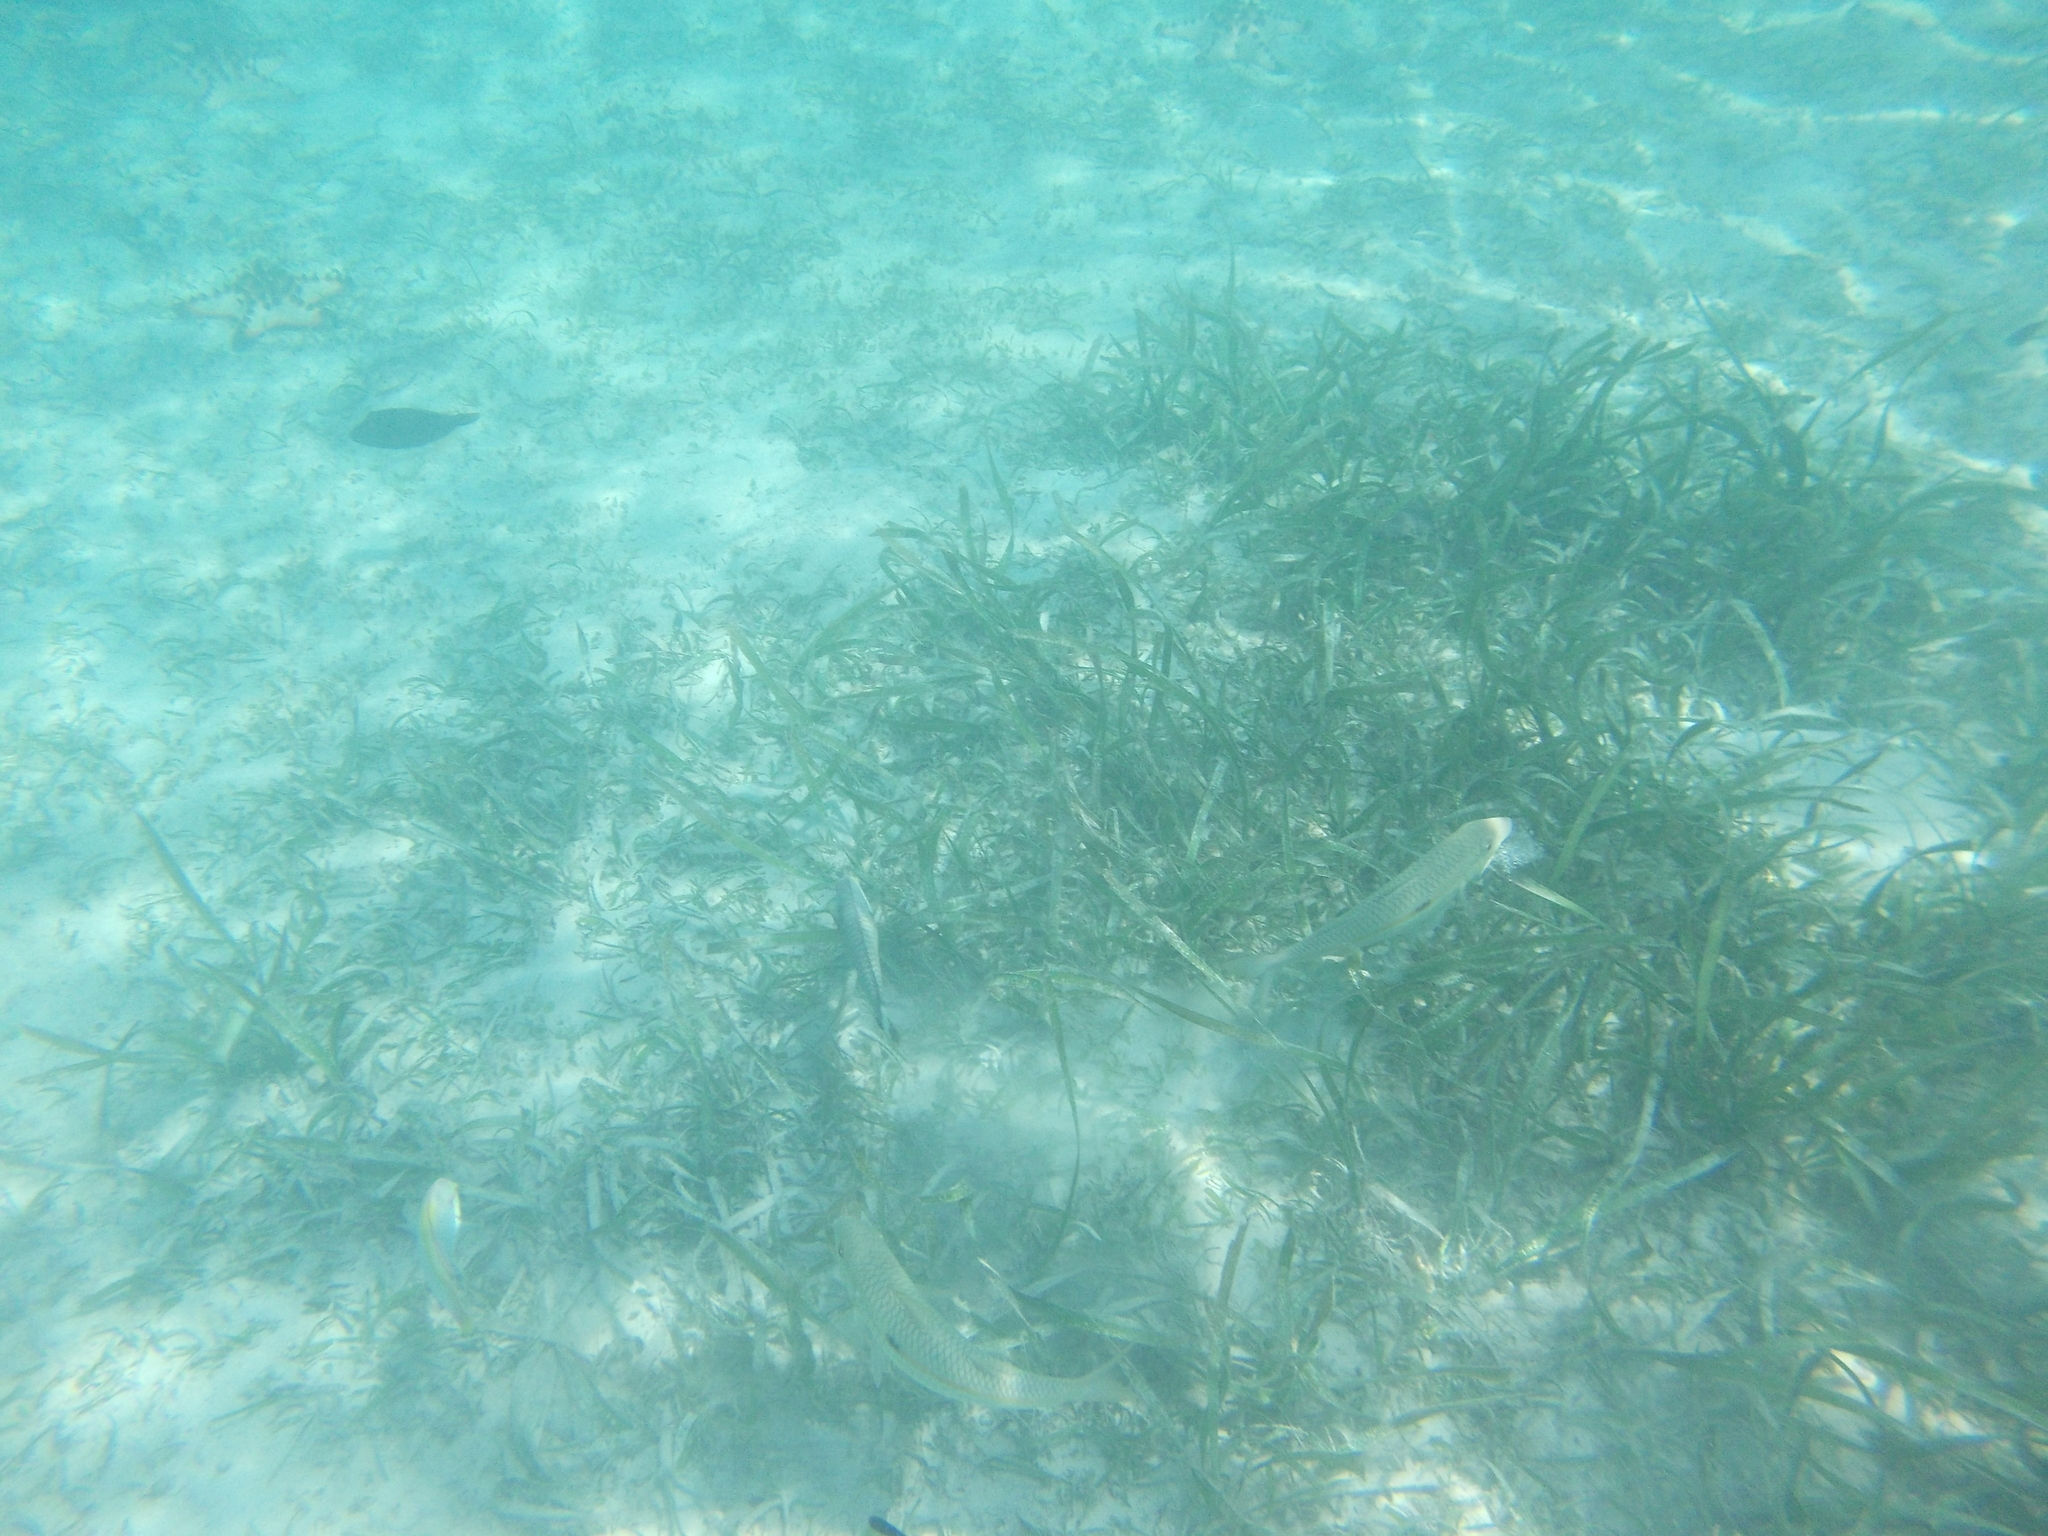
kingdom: Animalia
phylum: Chordata
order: Perciformes
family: Mullidae
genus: Mulloidichthys
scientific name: Mulloidichthys flavolineatus
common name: Yellowstripe goatfish
